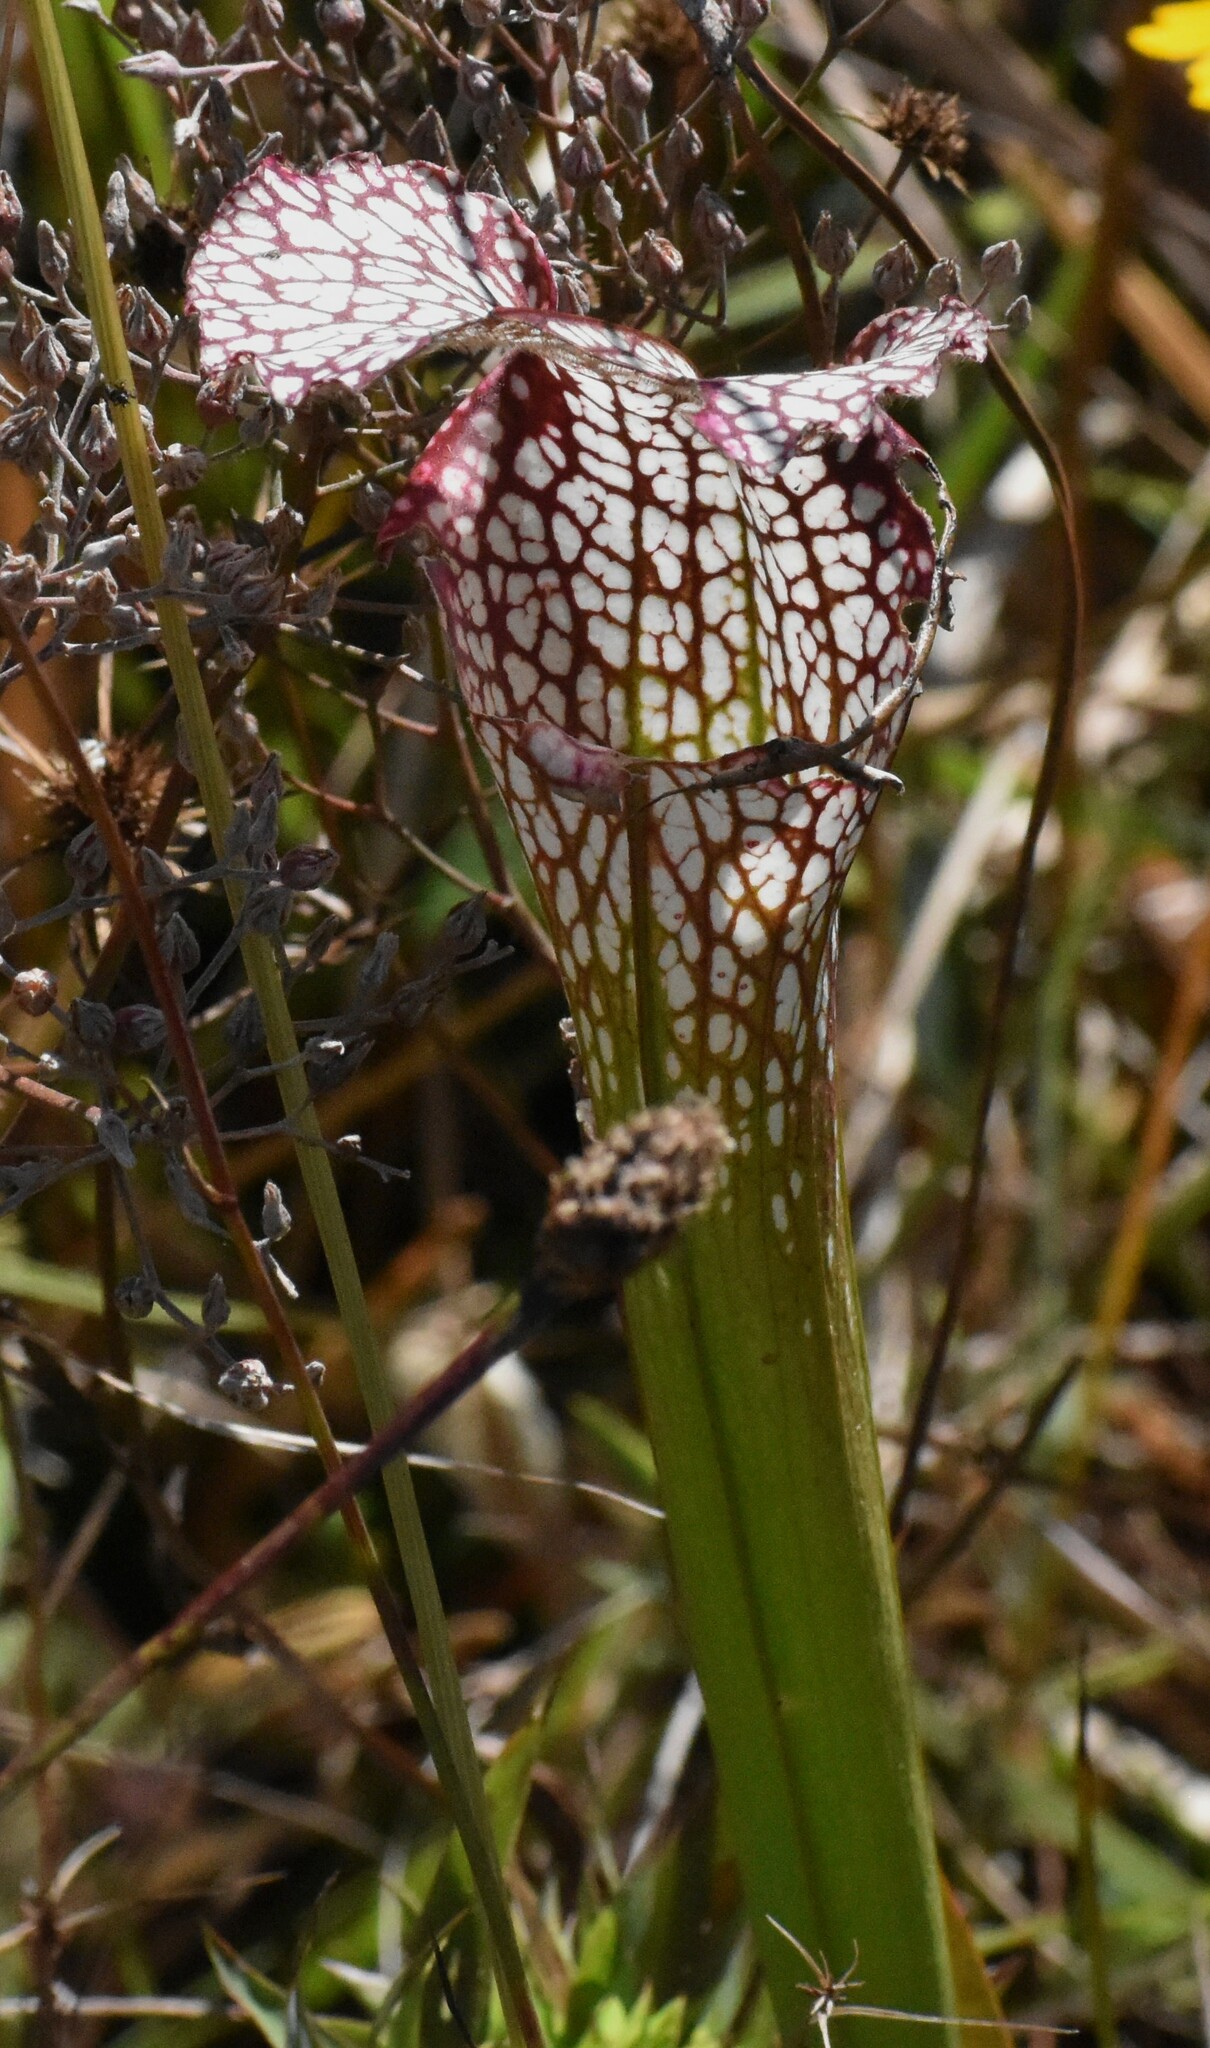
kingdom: Plantae
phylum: Tracheophyta
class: Magnoliopsida
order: Ericales
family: Sarraceniaceae
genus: Sarracenia
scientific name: Sarracenia leucophylla
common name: Purple trumpetleaf
